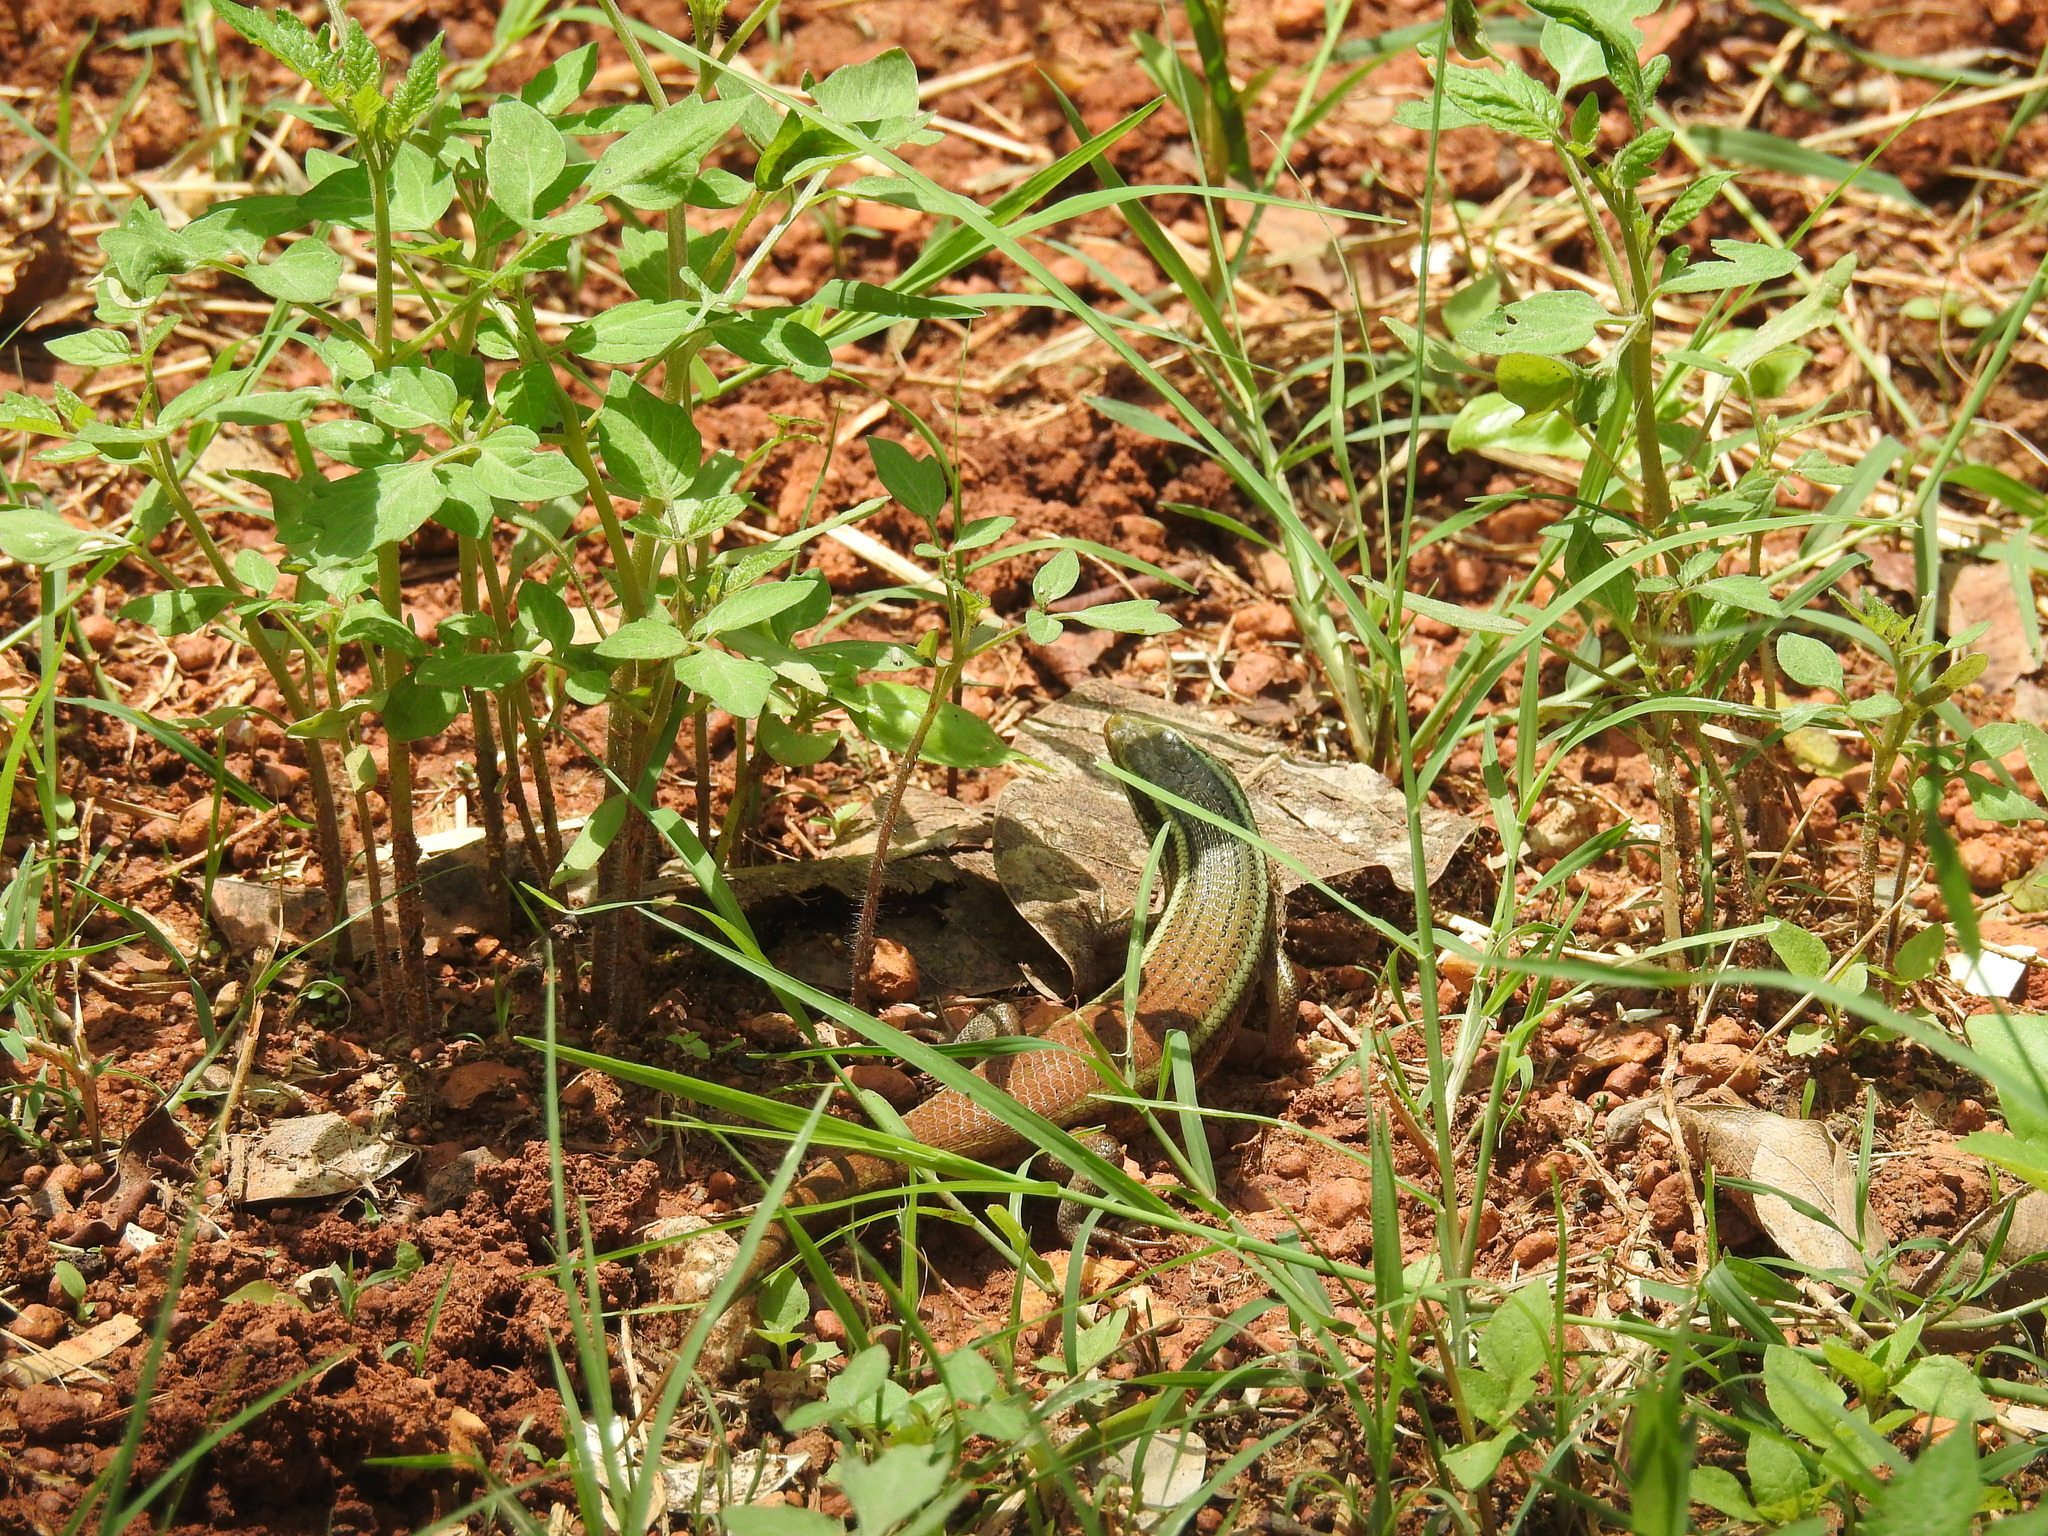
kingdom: Animalia
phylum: Chordata
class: Squamata
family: Scincidae
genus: Eutropis
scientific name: Eutropis carinata
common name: Keeled indian mabuya
